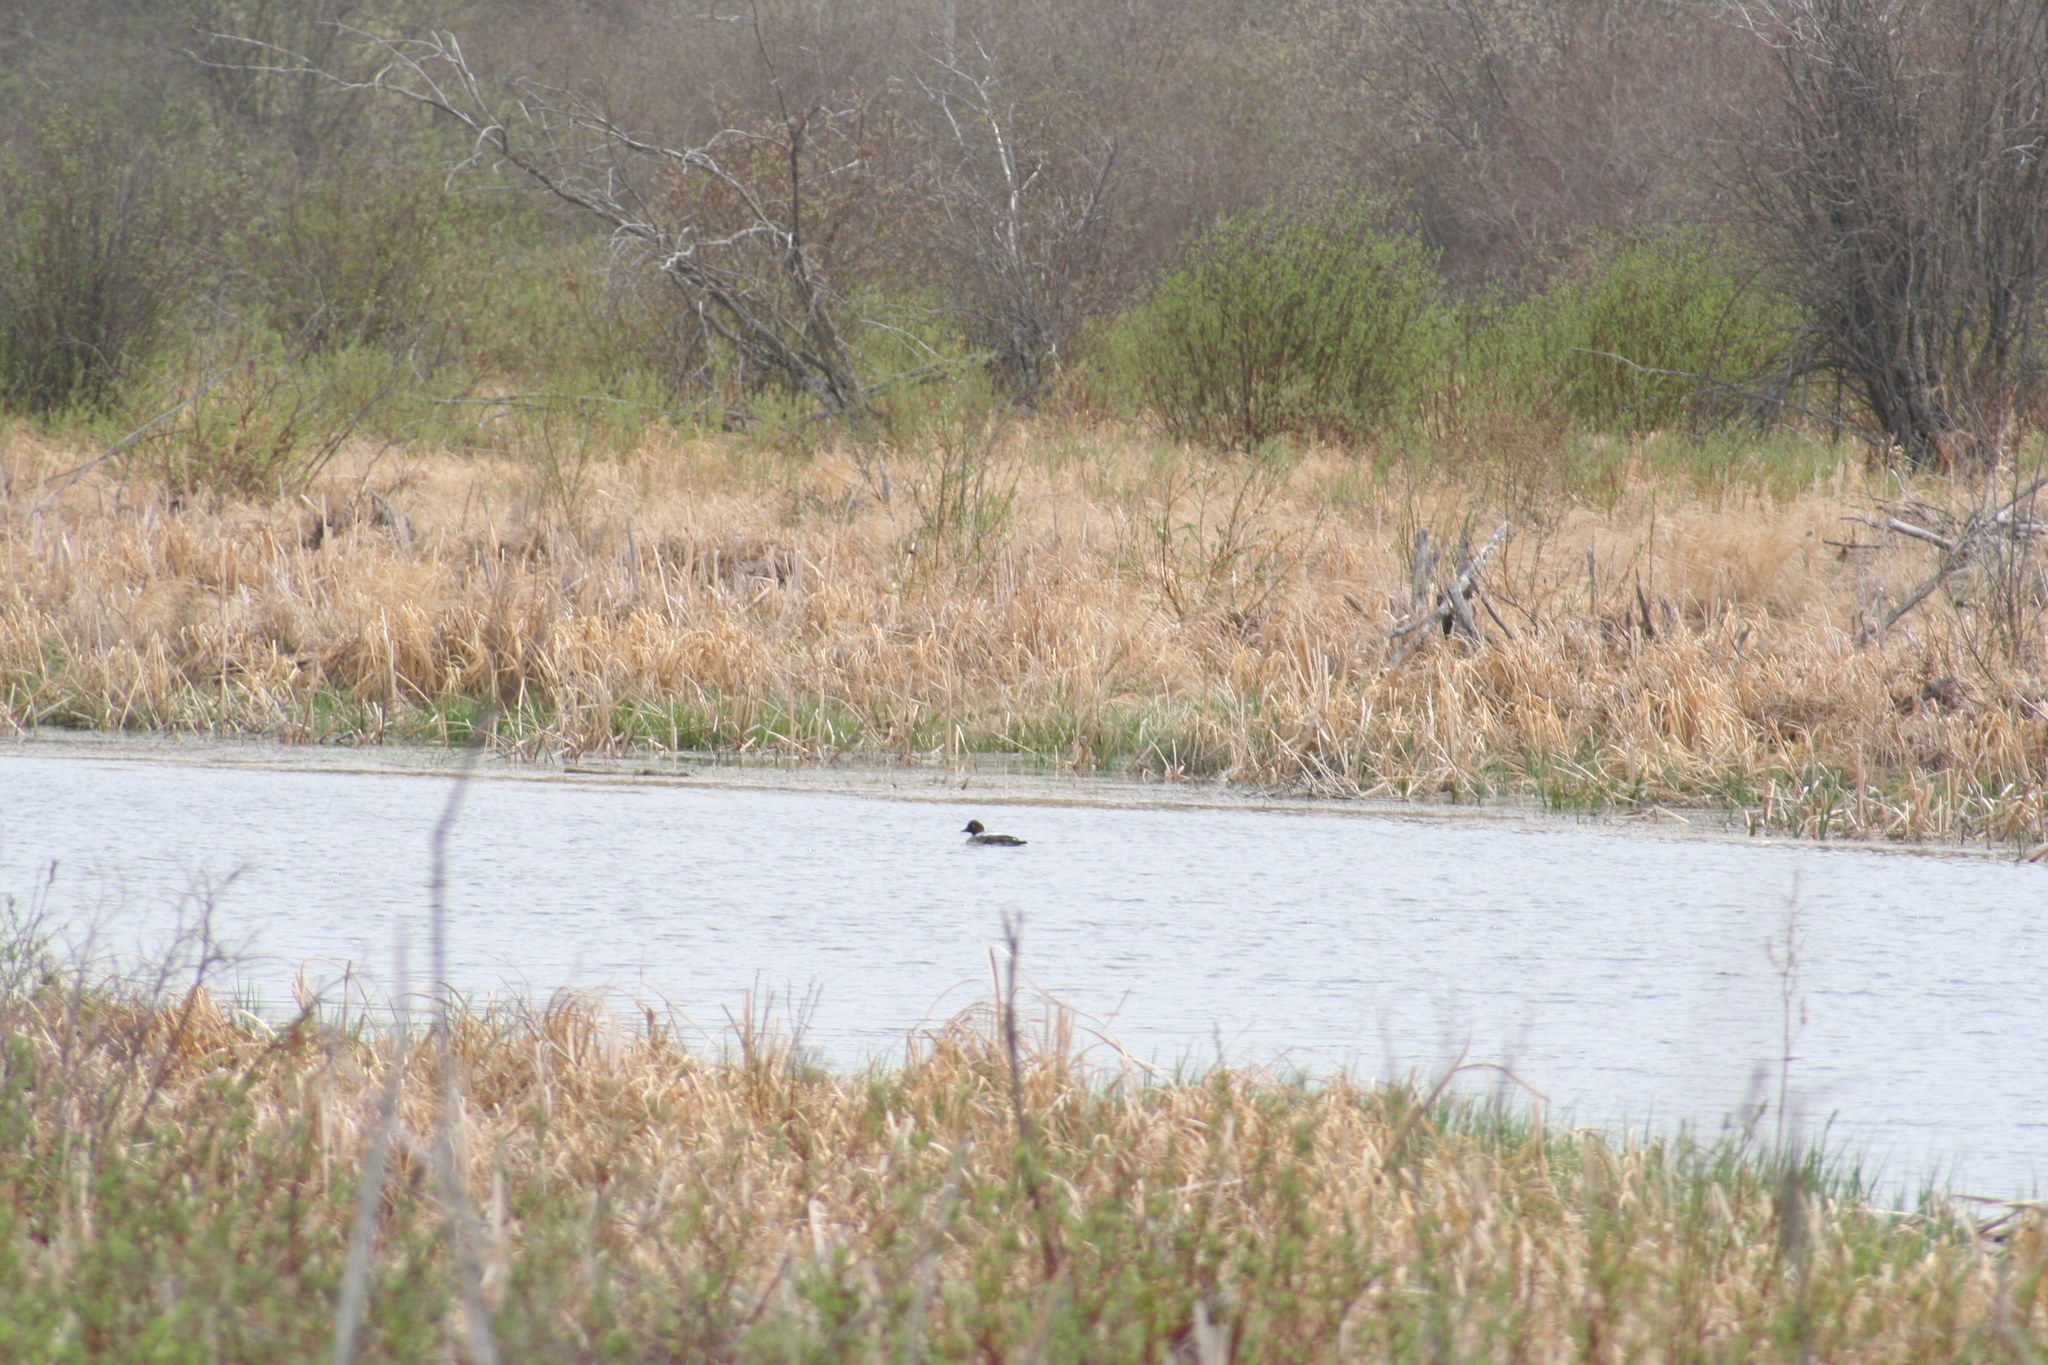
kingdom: Animalia
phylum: Chordata
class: Aves
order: Anseriformes
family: Anatidae
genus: Bucephala
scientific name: Bucephala clangula
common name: Common goldeneye
